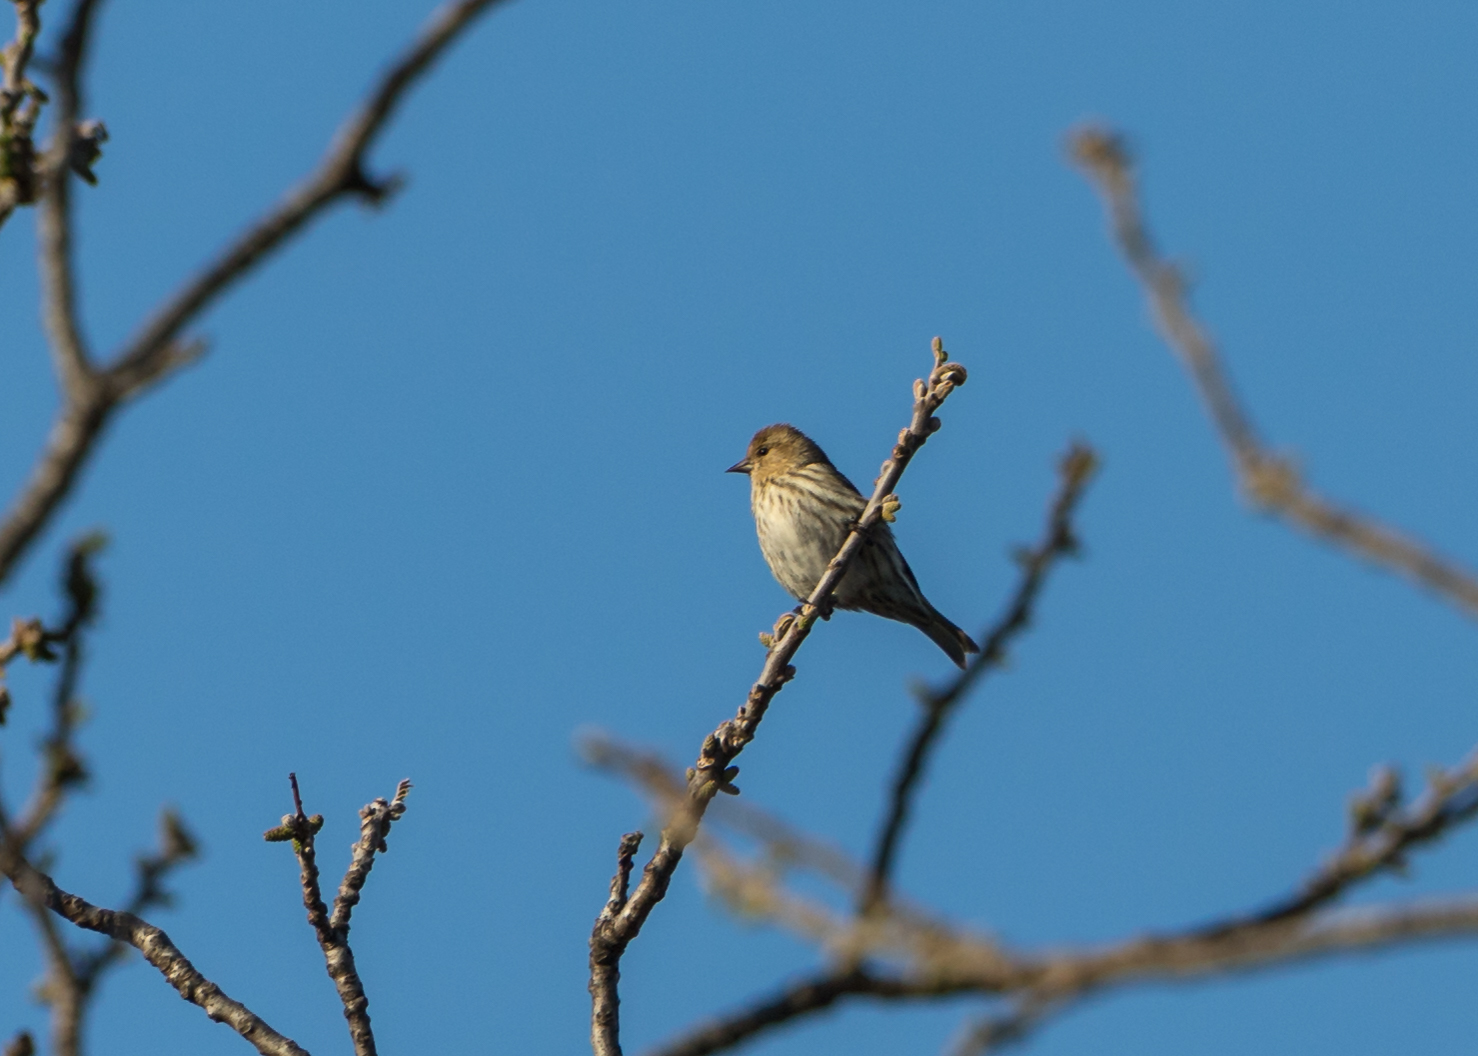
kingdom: Animalia
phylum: Chordata
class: Aves
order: Passeriformes
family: Fringillidae
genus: Spinus
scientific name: Spinus pinus
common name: Pine siskin
